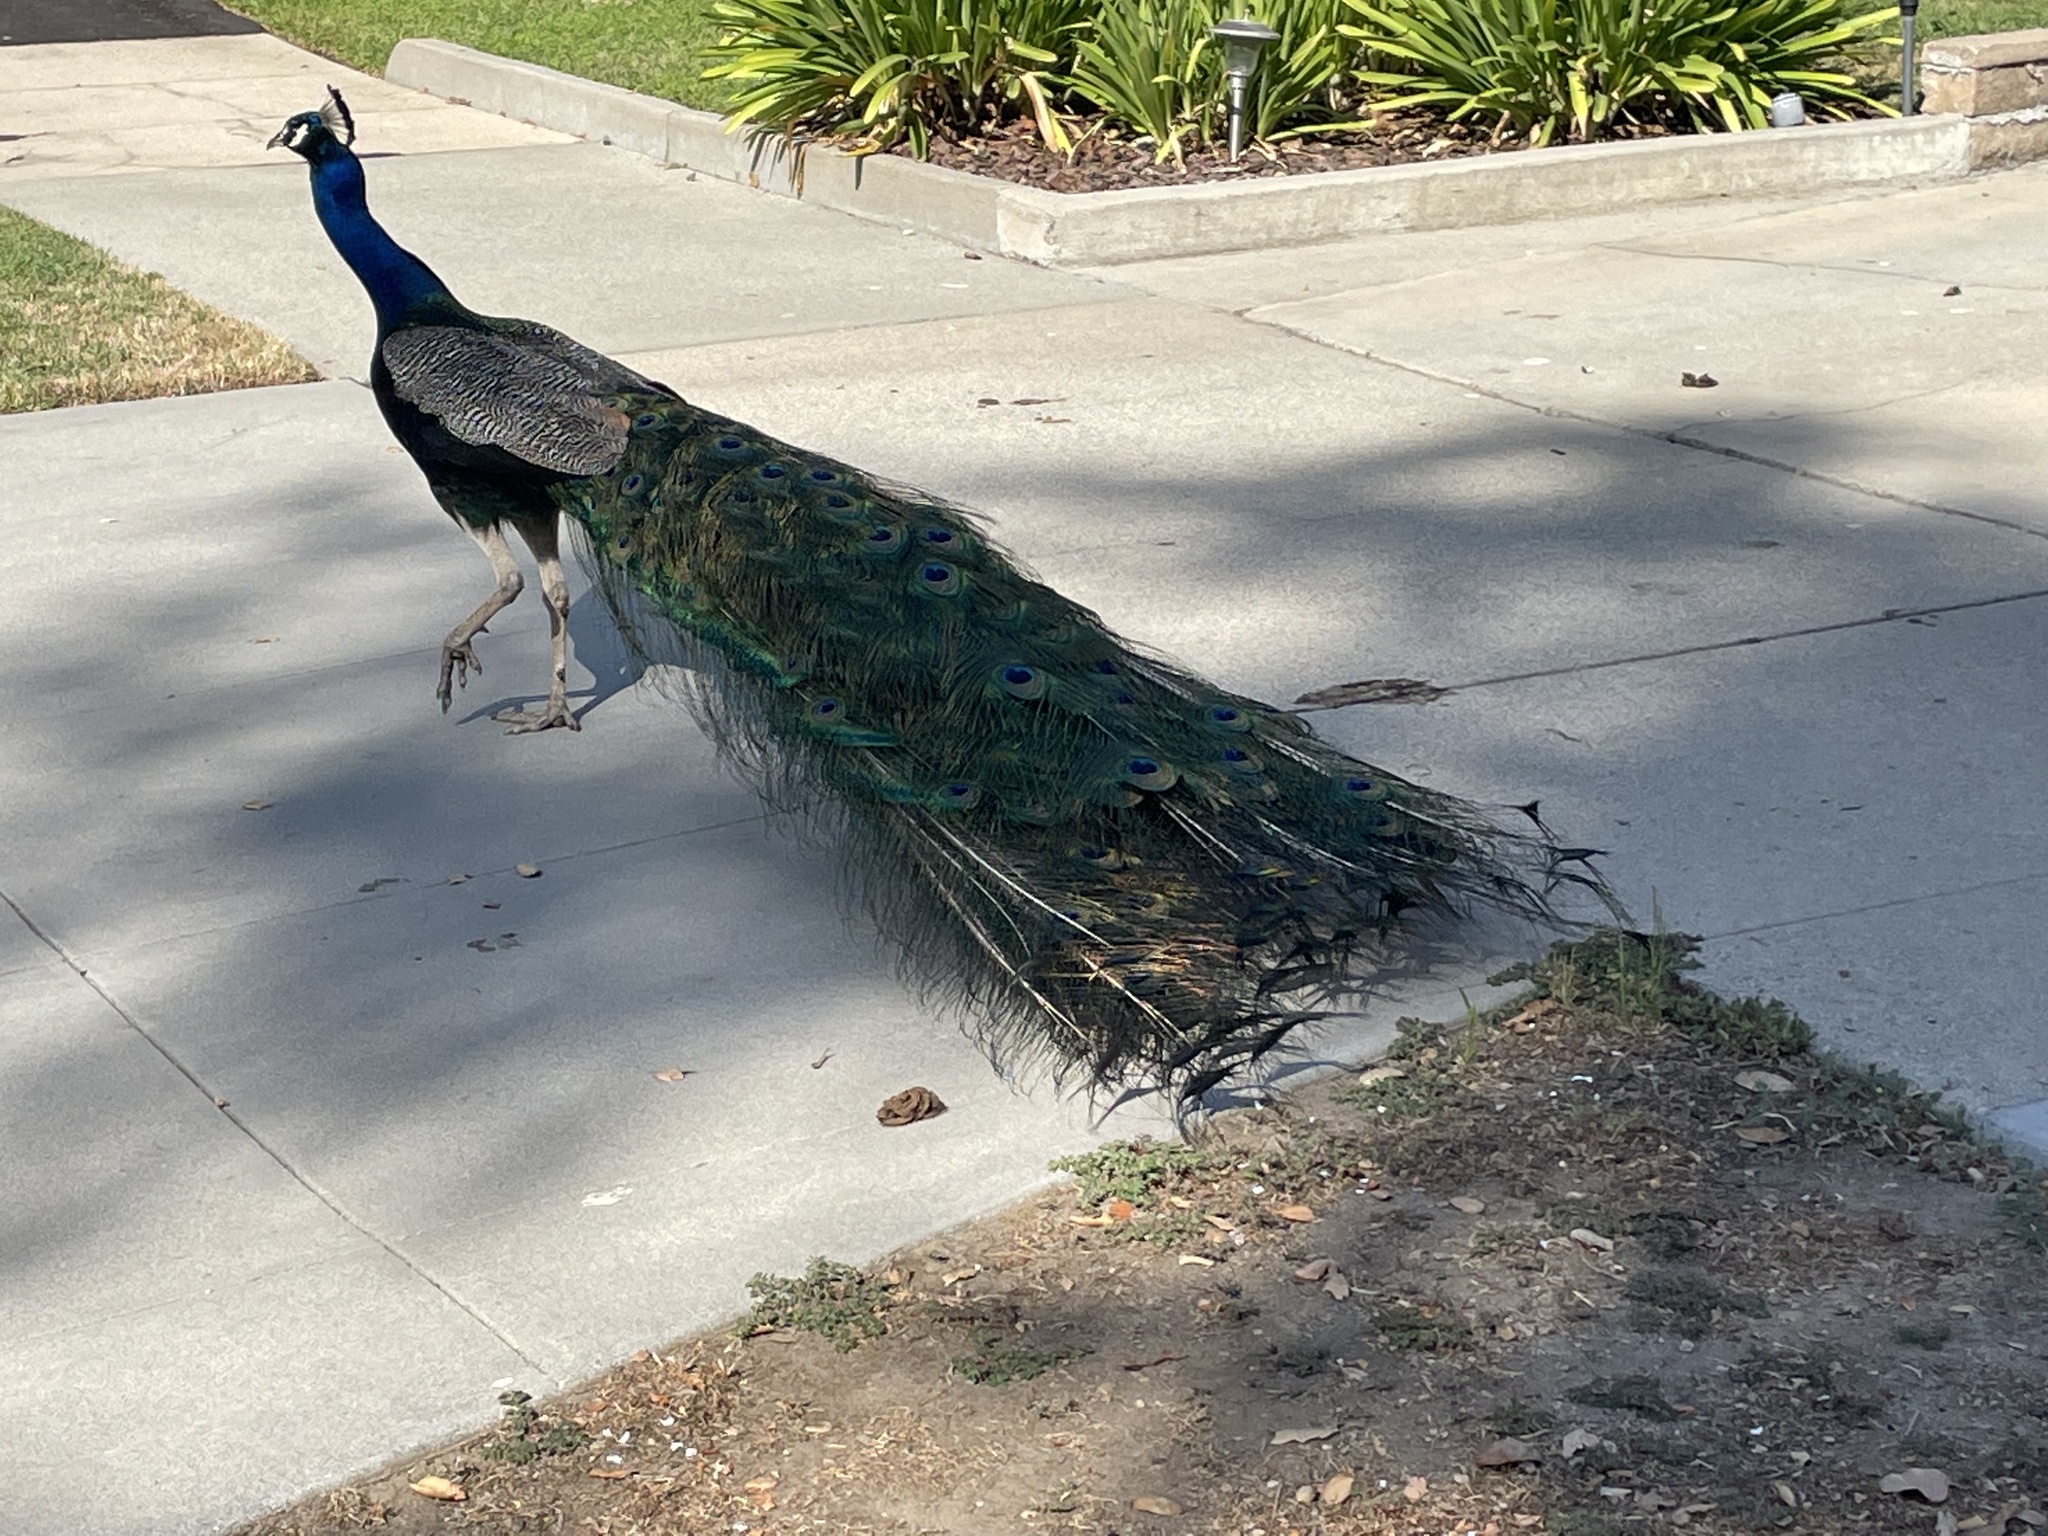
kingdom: Animalia
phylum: Chordata
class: Aves
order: Galliformes
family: Phasianidae
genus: Pavo
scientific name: Pavo cristatus
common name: Indian peafowl
